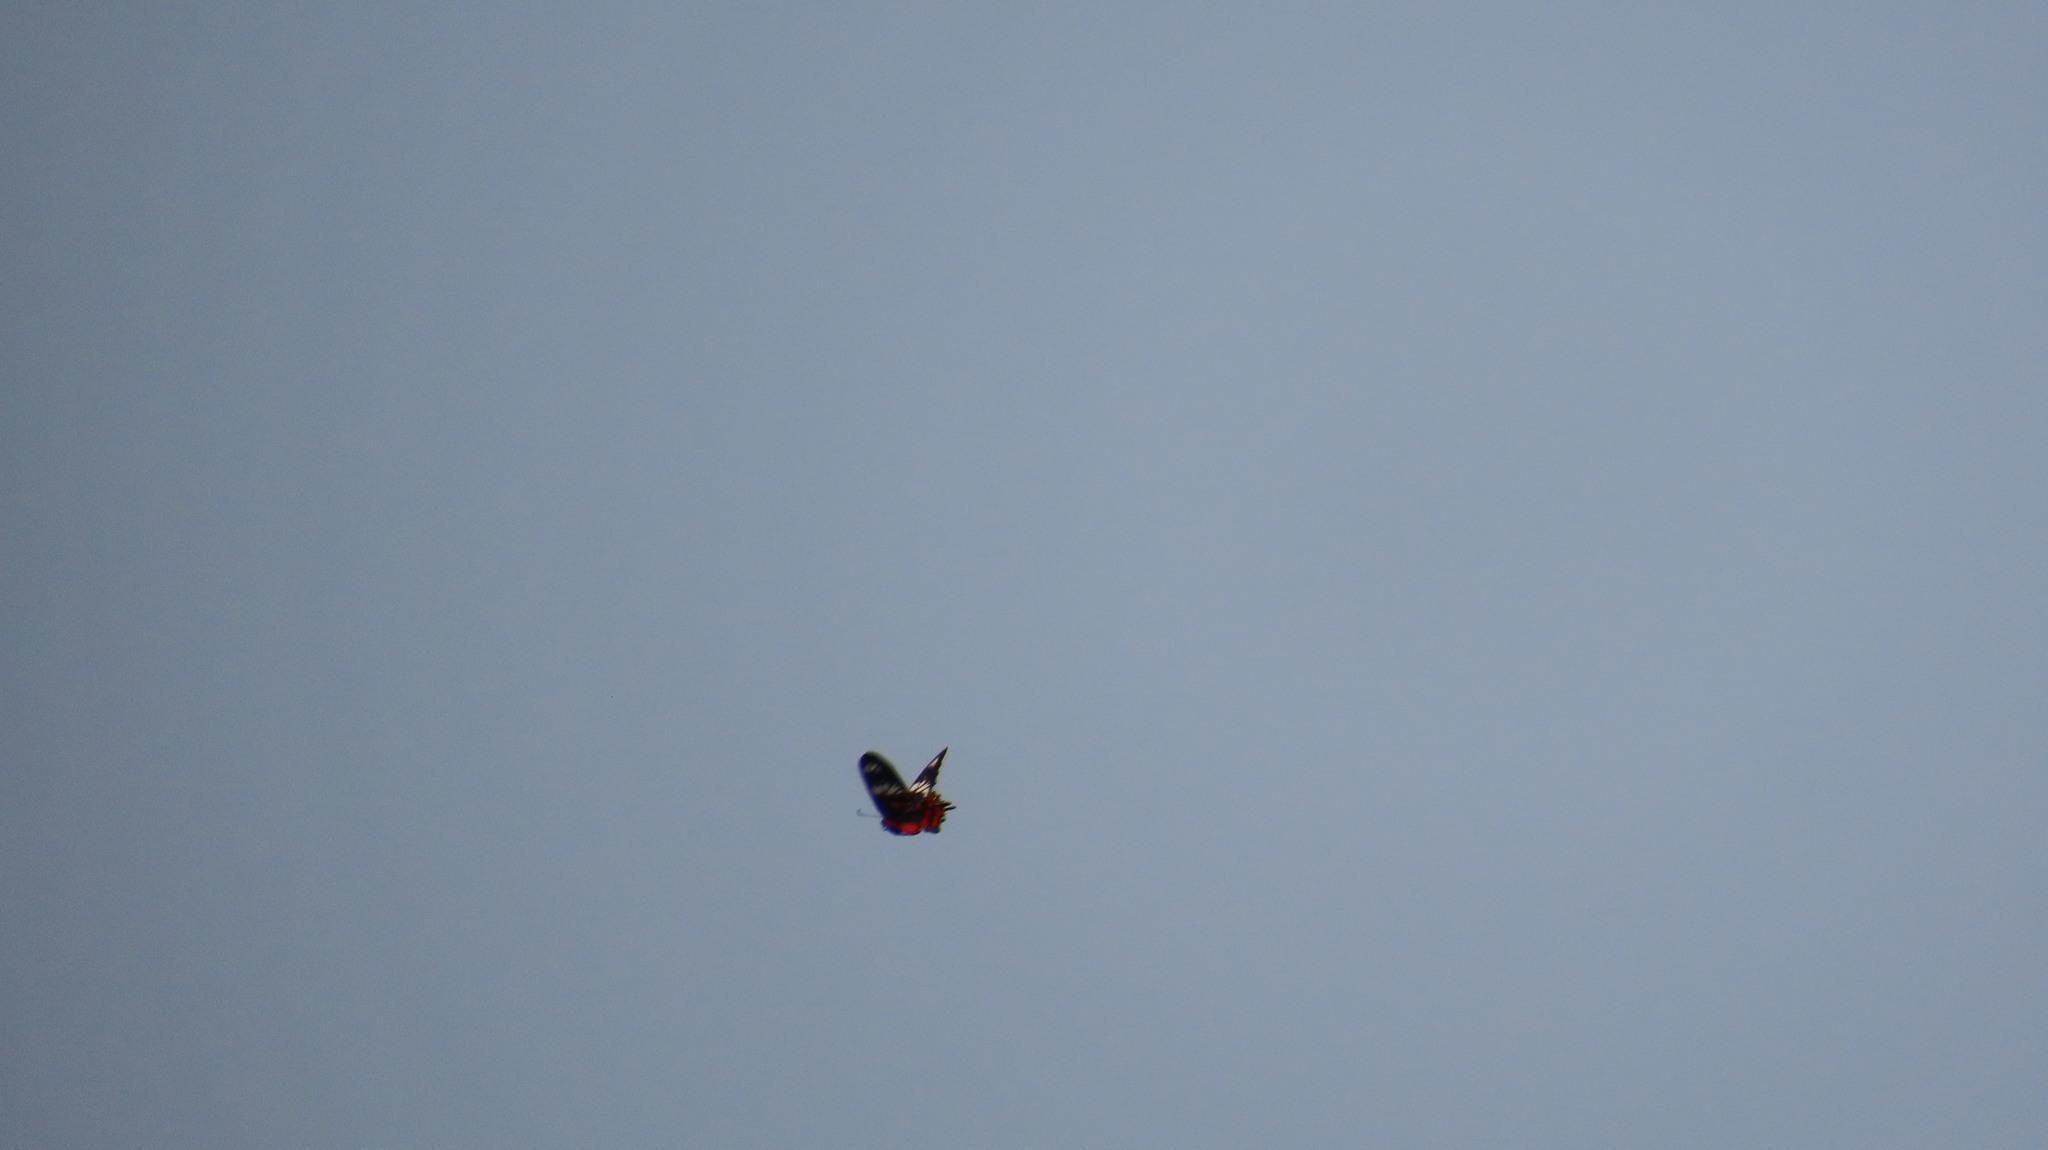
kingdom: Animalia
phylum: Arthropoda
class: Insecta
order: Lepidoptera
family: Papilionidae
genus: Pachliopta
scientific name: Pachliopta hector
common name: Crimson rose
